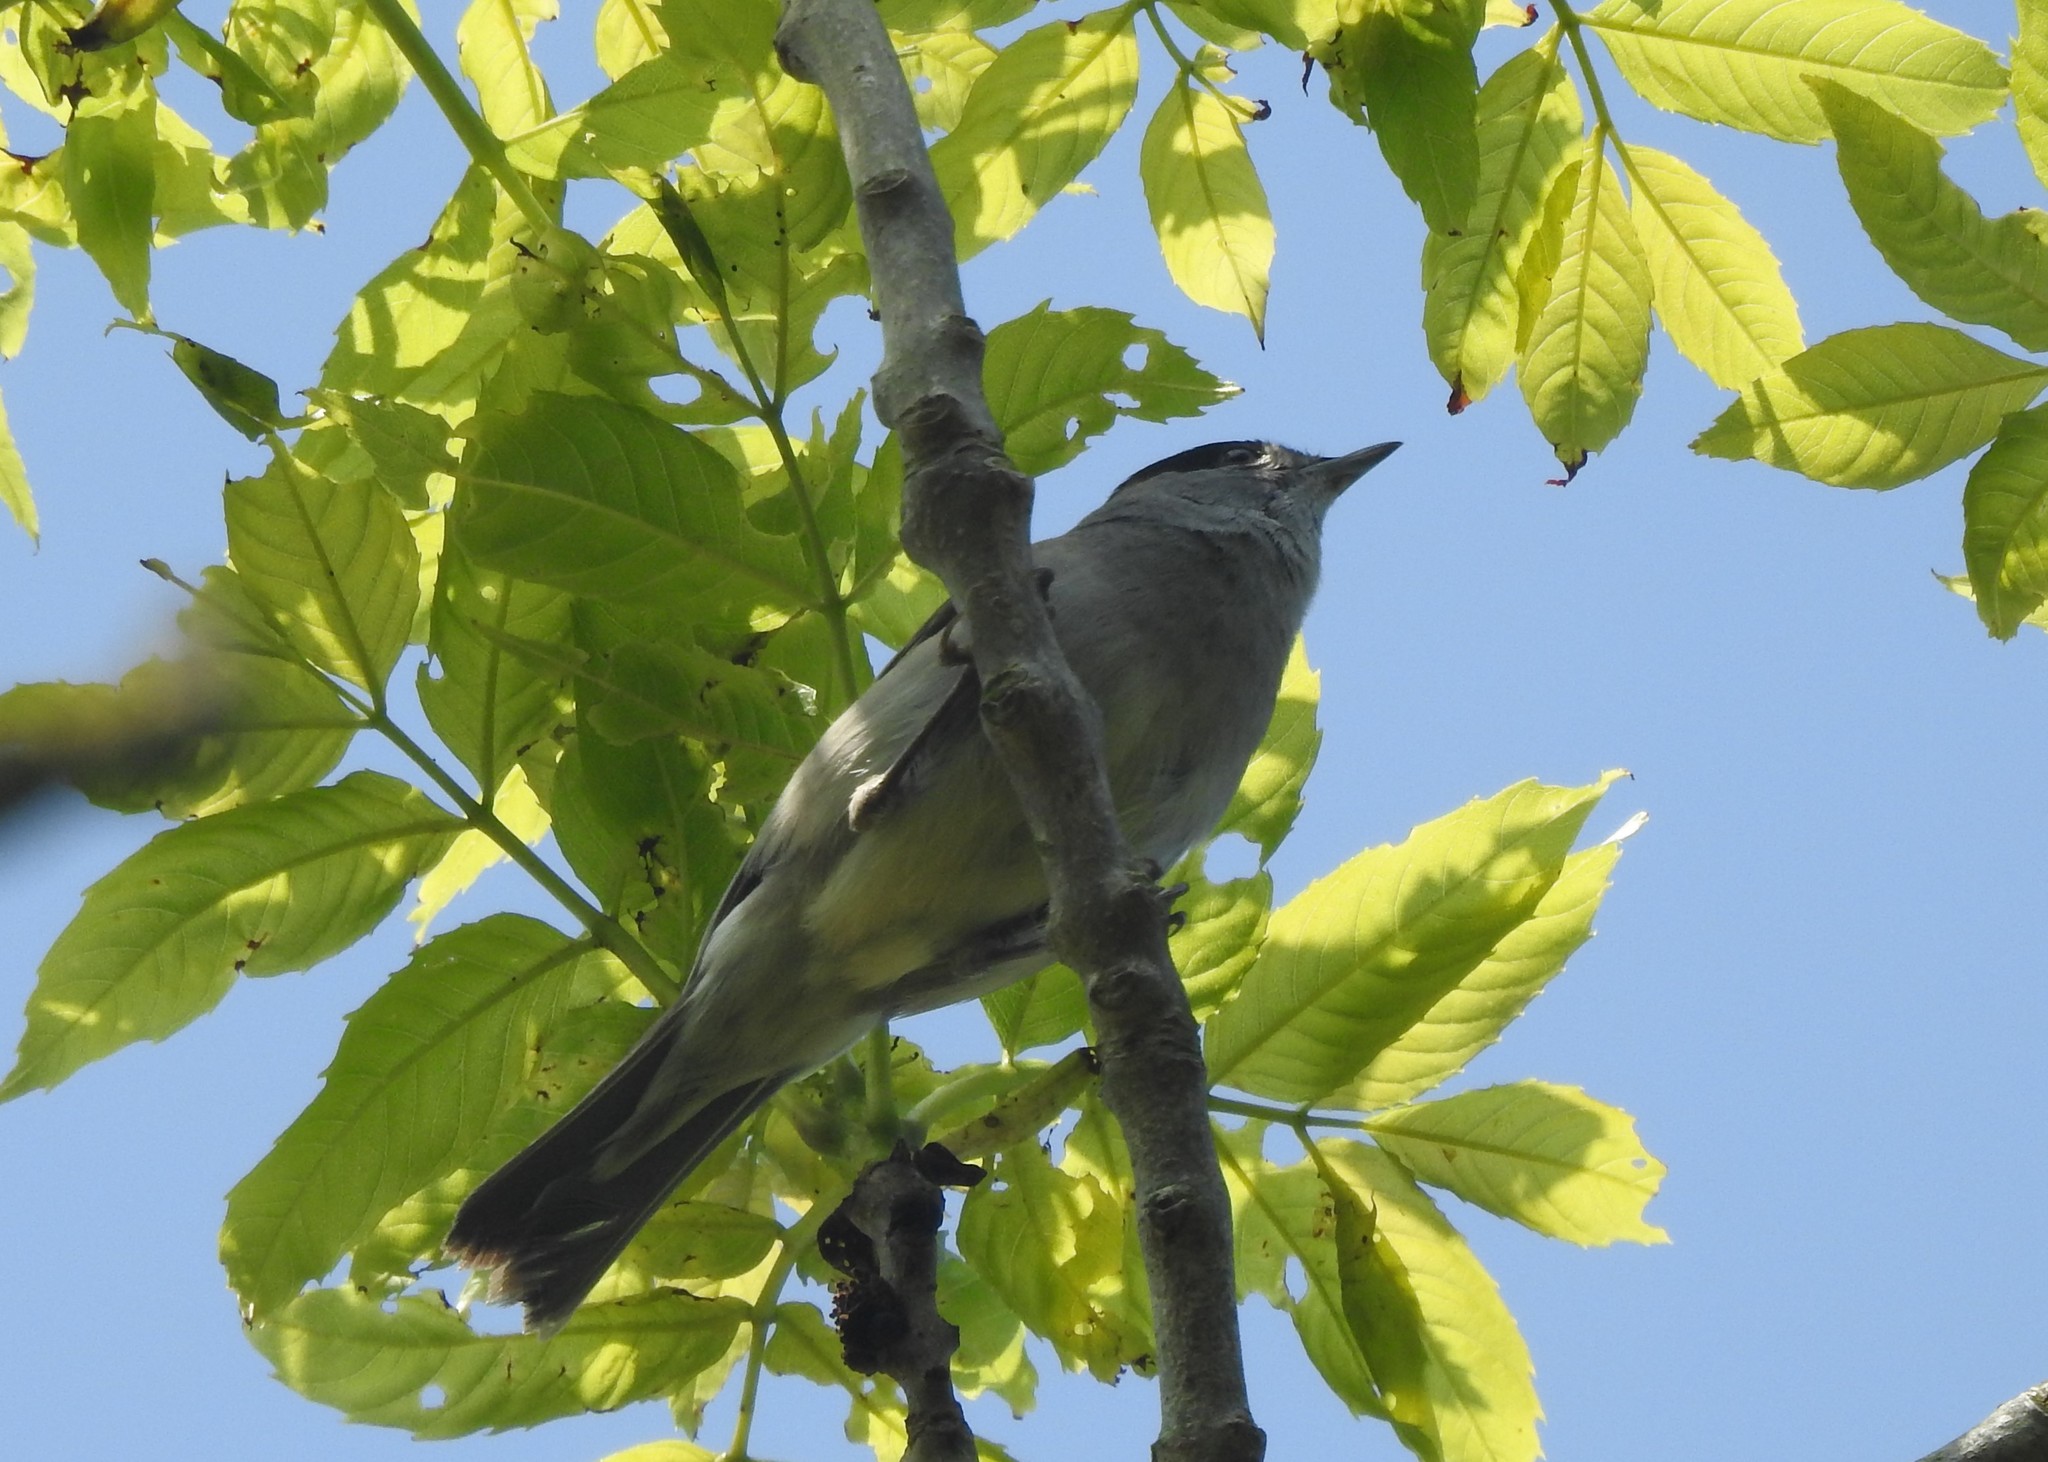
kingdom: Animalia
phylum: Chordata
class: Aves
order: Passeriformes
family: Sylviidae
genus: Sylvia
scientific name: Sylvia atricapilla
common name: Eurasian blackcap
